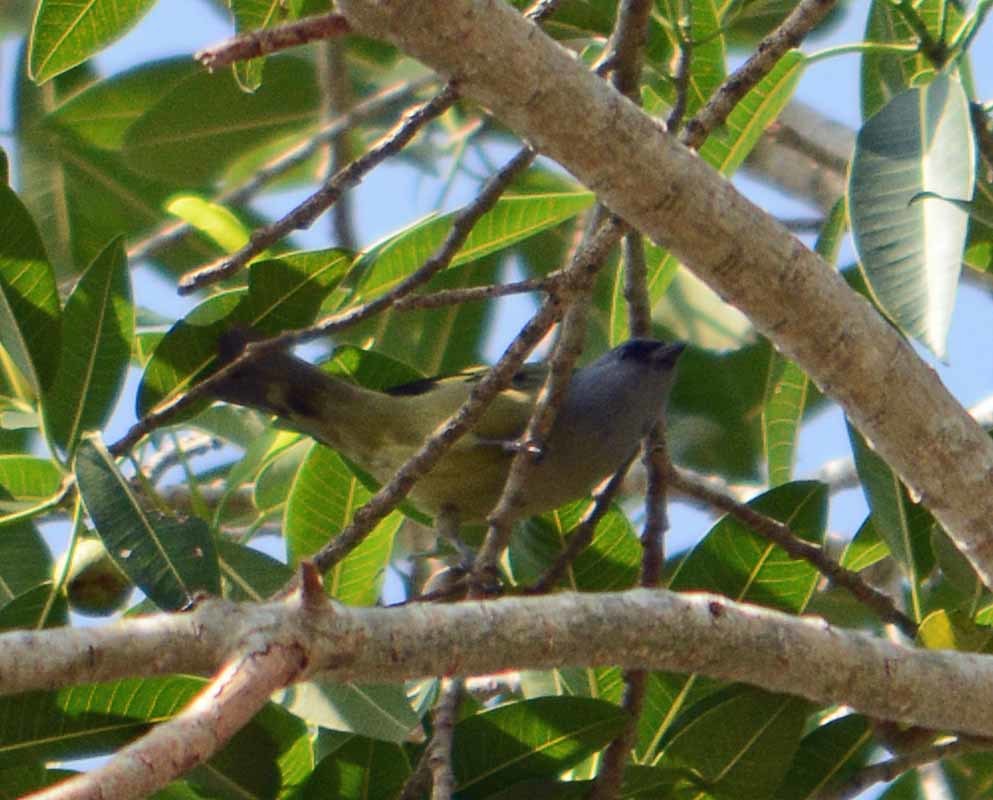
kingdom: Animalia
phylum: Chordata
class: Aves
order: Passeriformes
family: Thraupidae
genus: Thraupis
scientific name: Thraupis abbas
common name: Yellow-winged tanager
